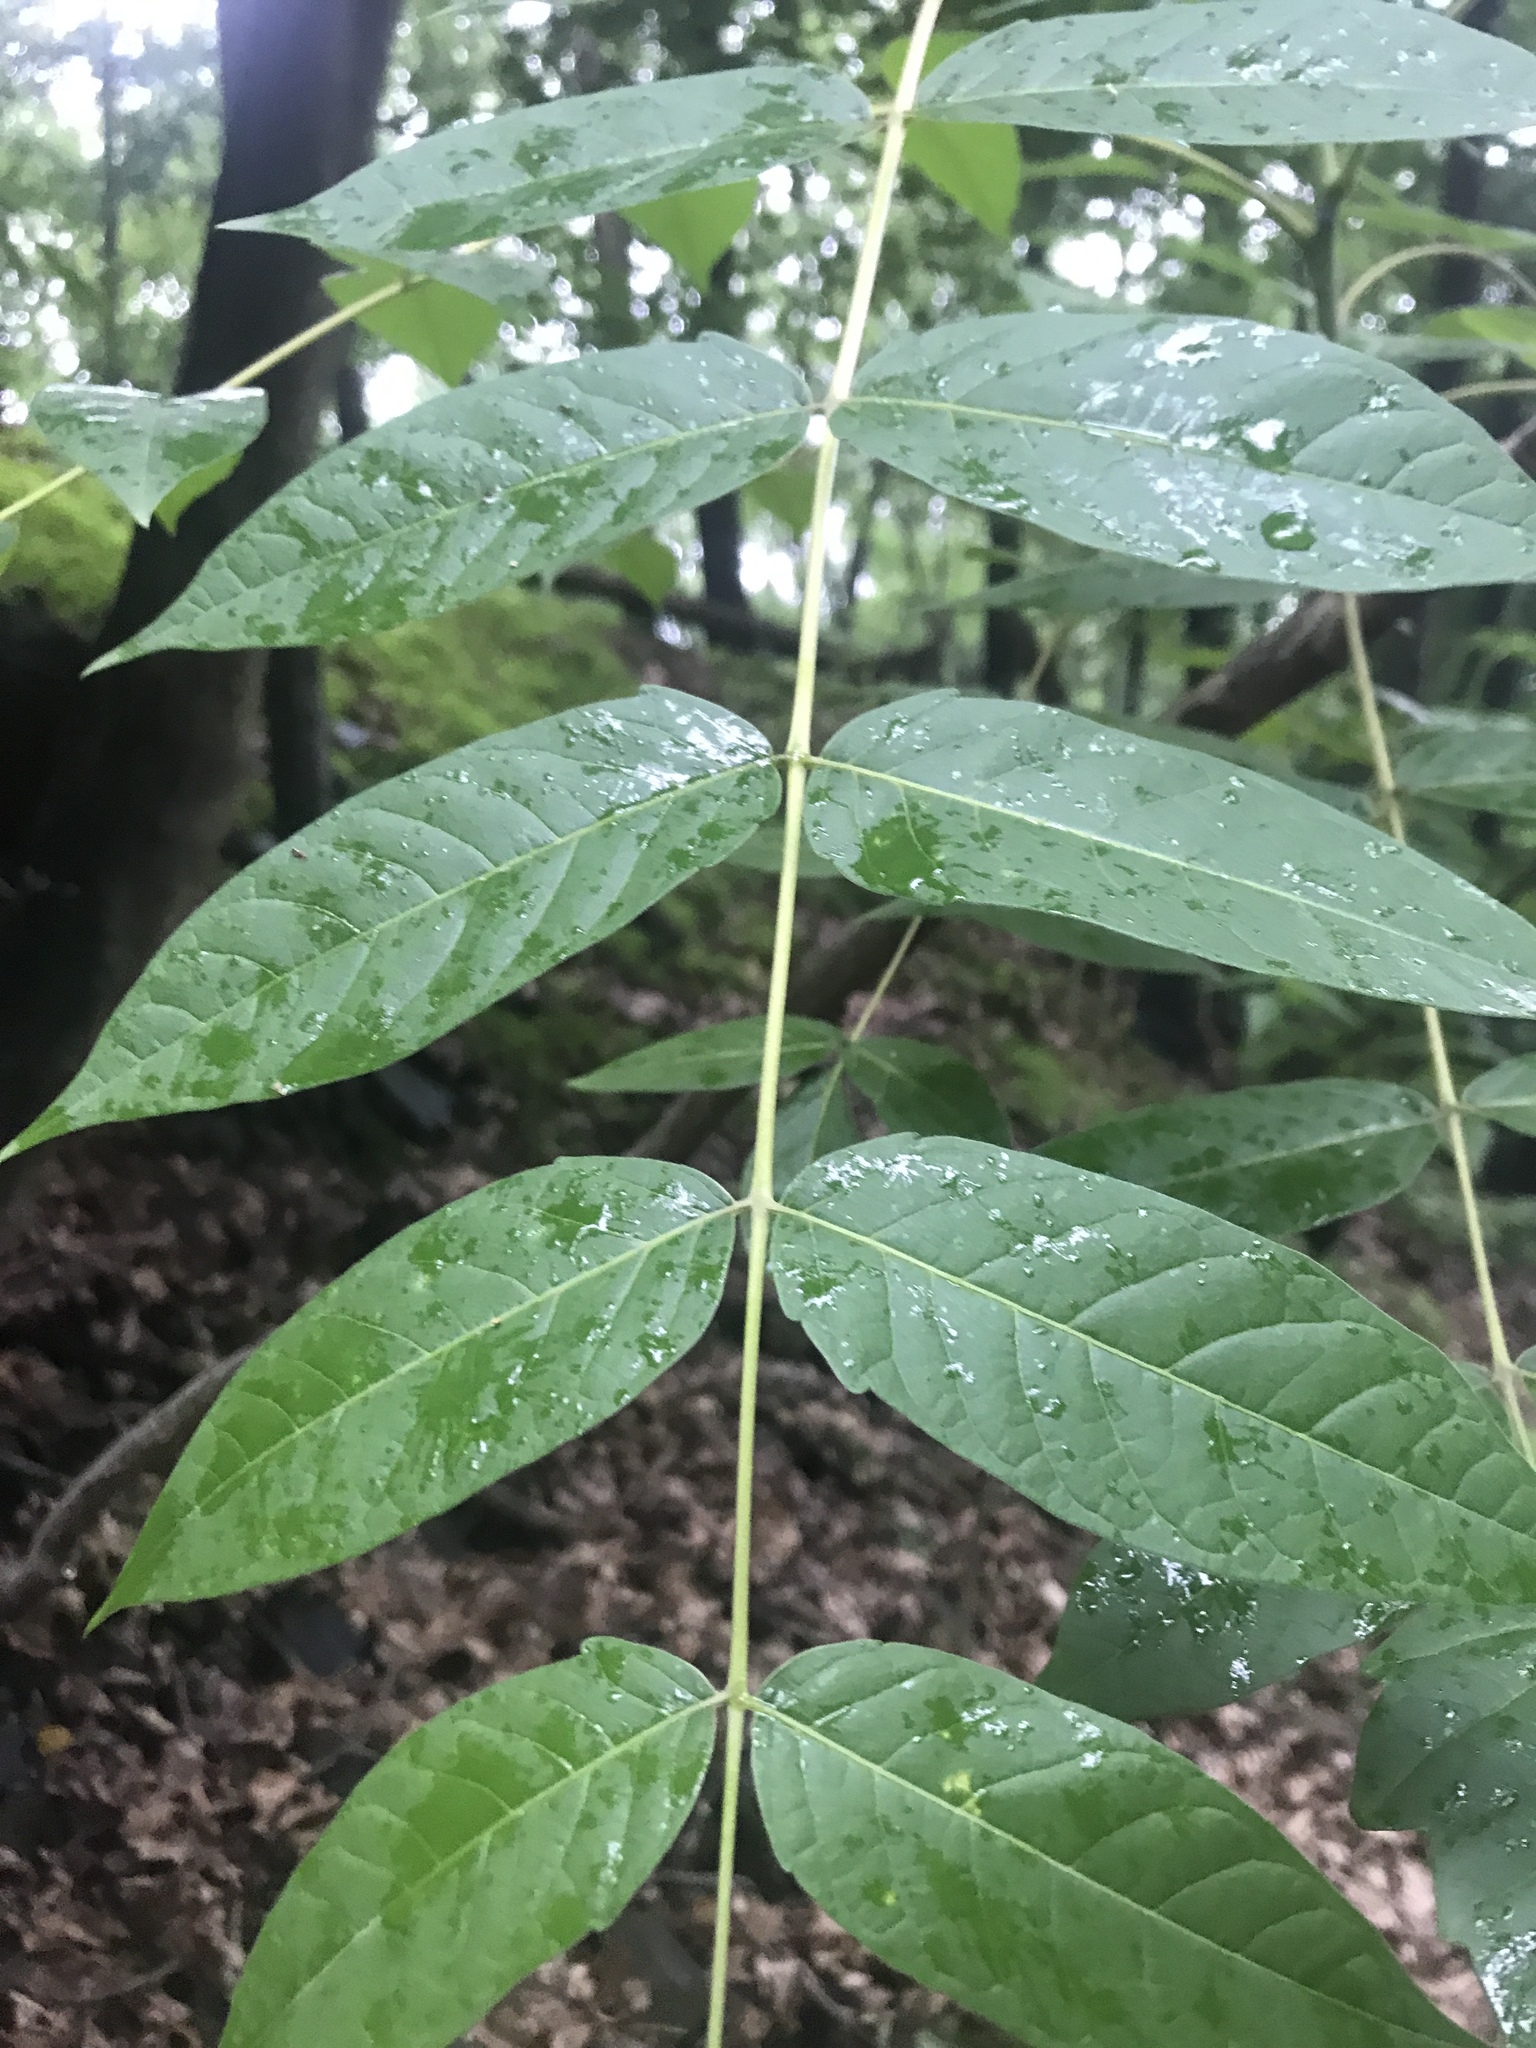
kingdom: Plantae
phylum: Tracheophyta
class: Magnoliopsida
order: Sapindales
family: Simaroubaceae
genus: Ailanthus
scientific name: Ailanthus altissima
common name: Tree-of-heaven
